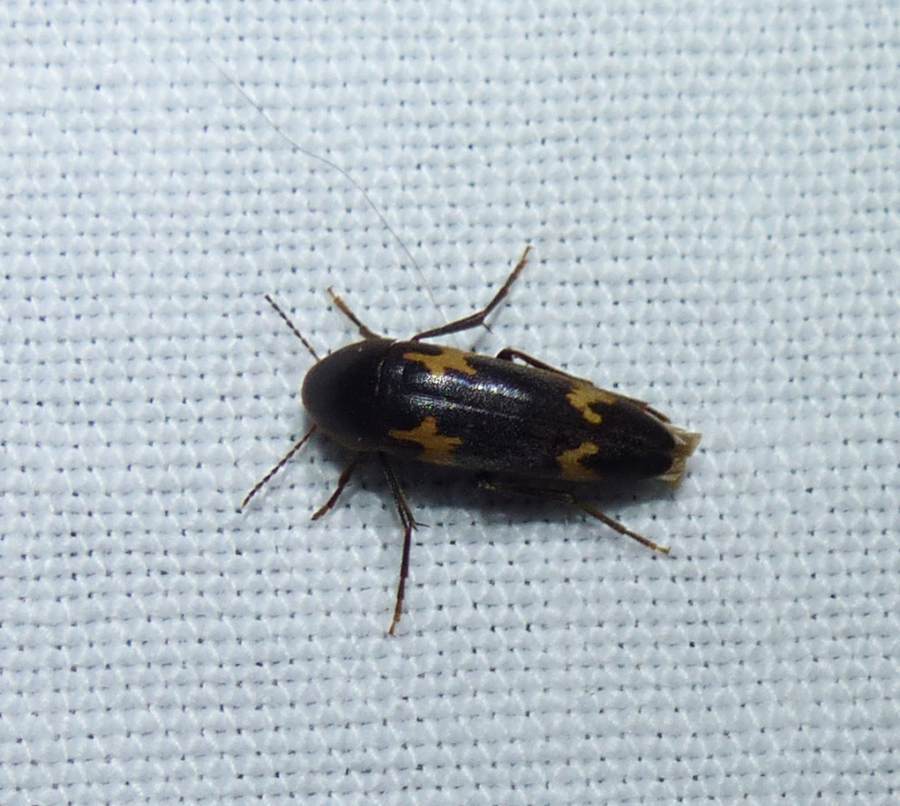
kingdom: Animalia
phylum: Arthropoda
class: Insecta
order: Coleoptera
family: Melandryidae
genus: Dircaea
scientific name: Dircaea liturata
